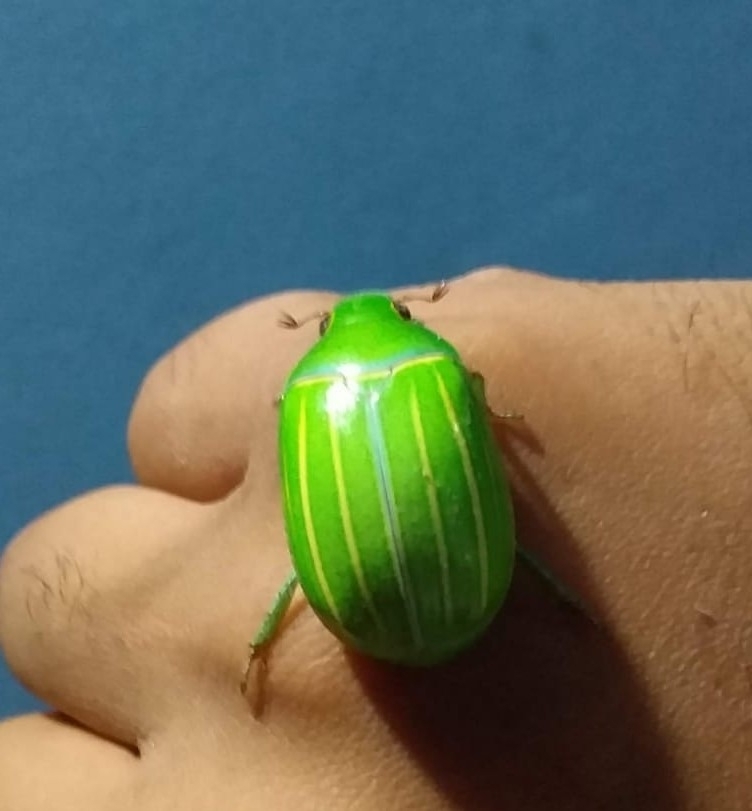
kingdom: Animalia
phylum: Arthropoda
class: Insecta
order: Coleoptera
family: Scarabaeidae
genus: Platycoelia
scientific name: Platycoelia inflata
